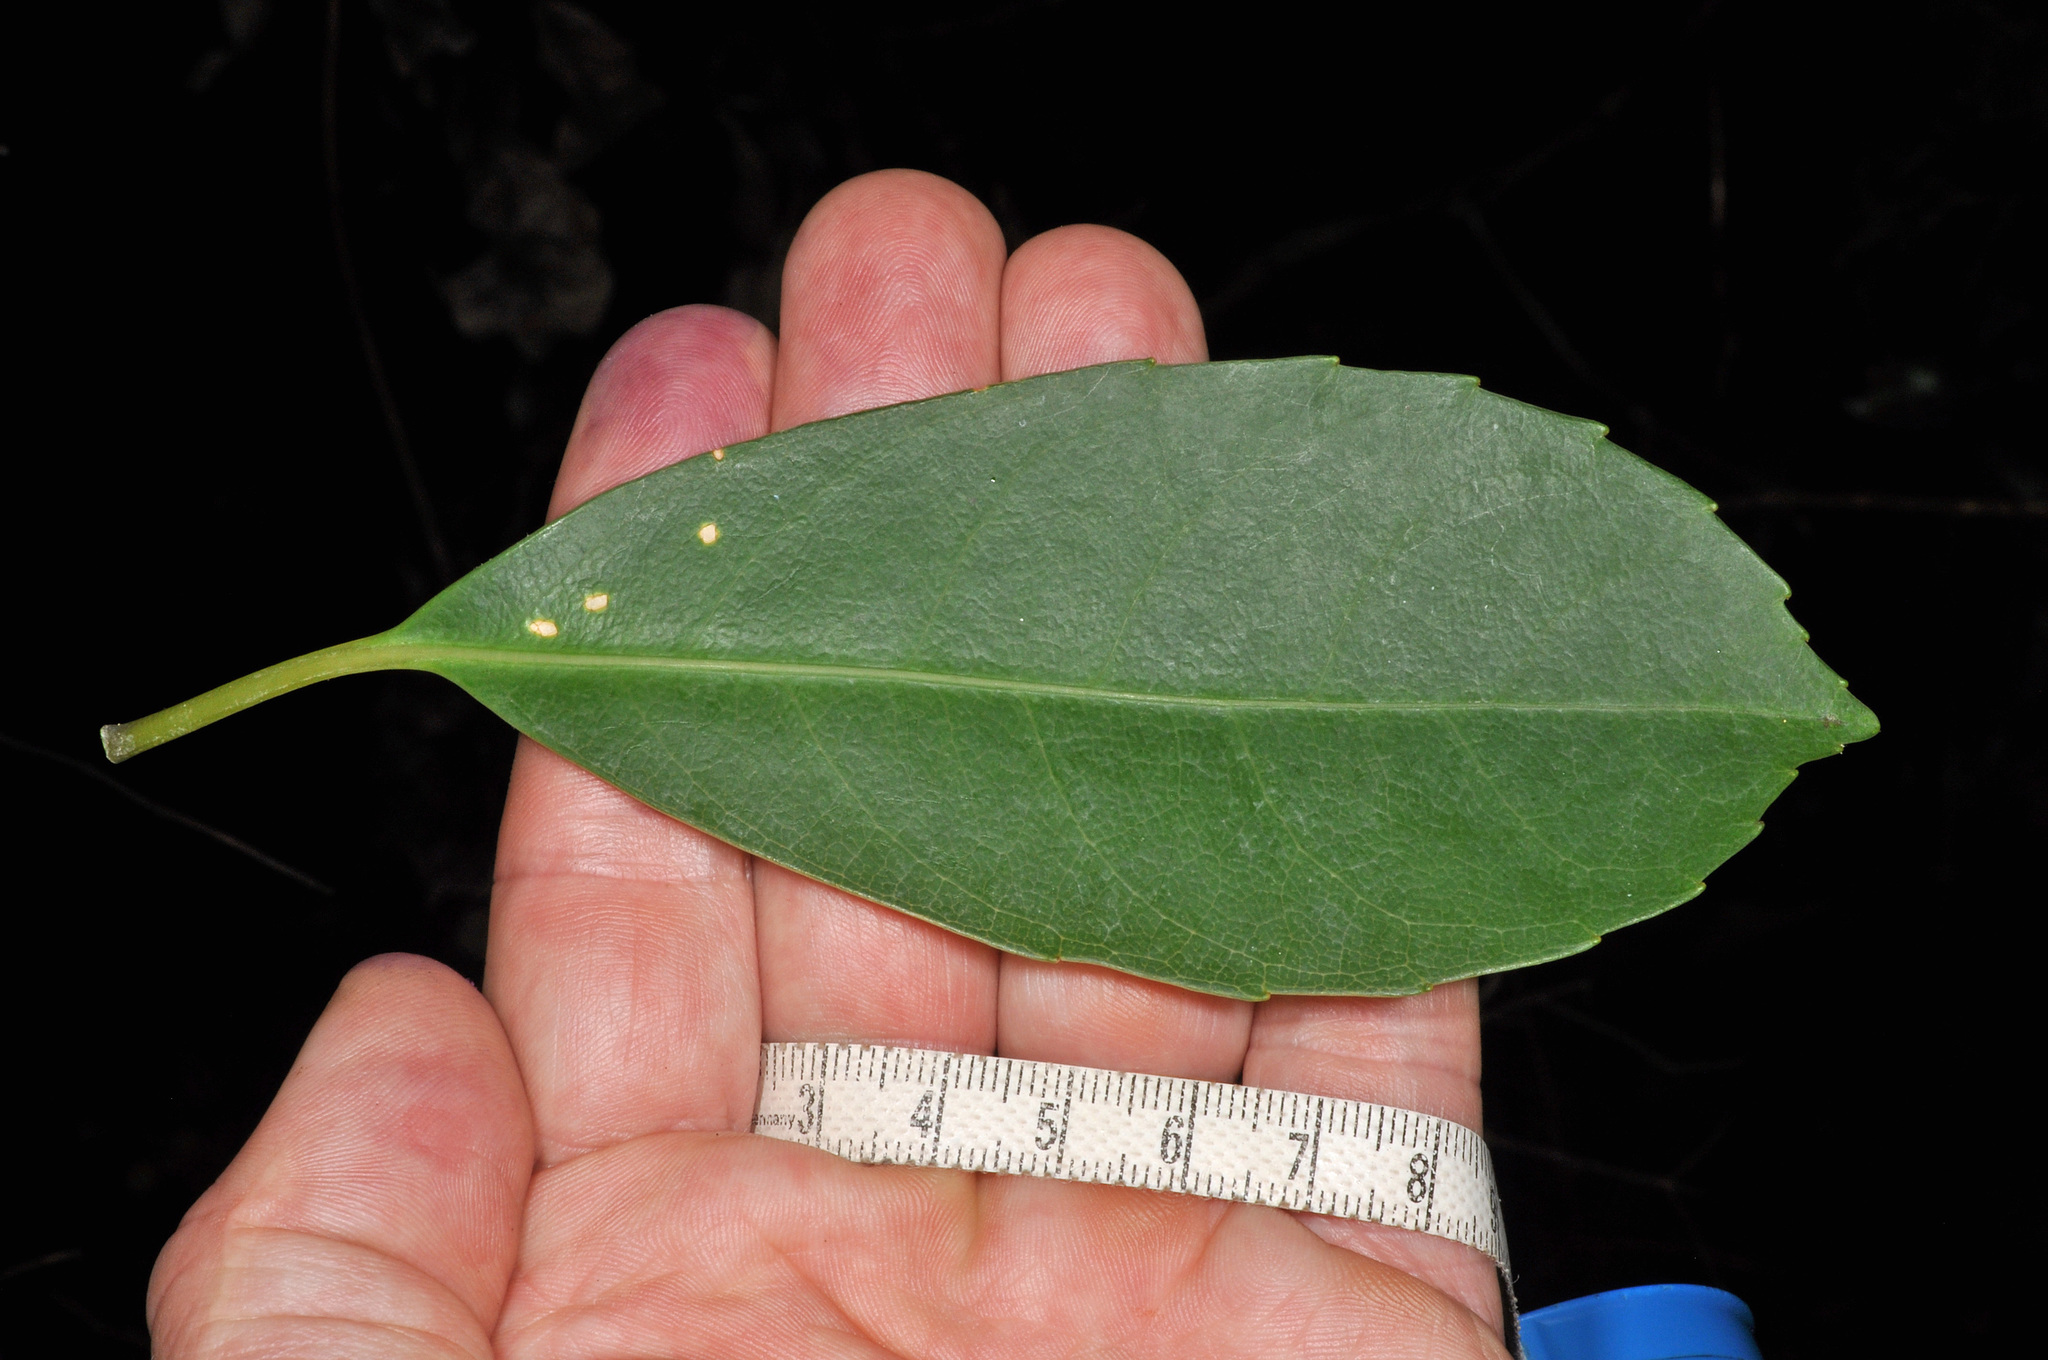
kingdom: Plantae
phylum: Tracheophyta
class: Magnoliopsida
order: Malpighiales
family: Violaceae
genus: Melicytus
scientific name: Melicytus macrophyllus
